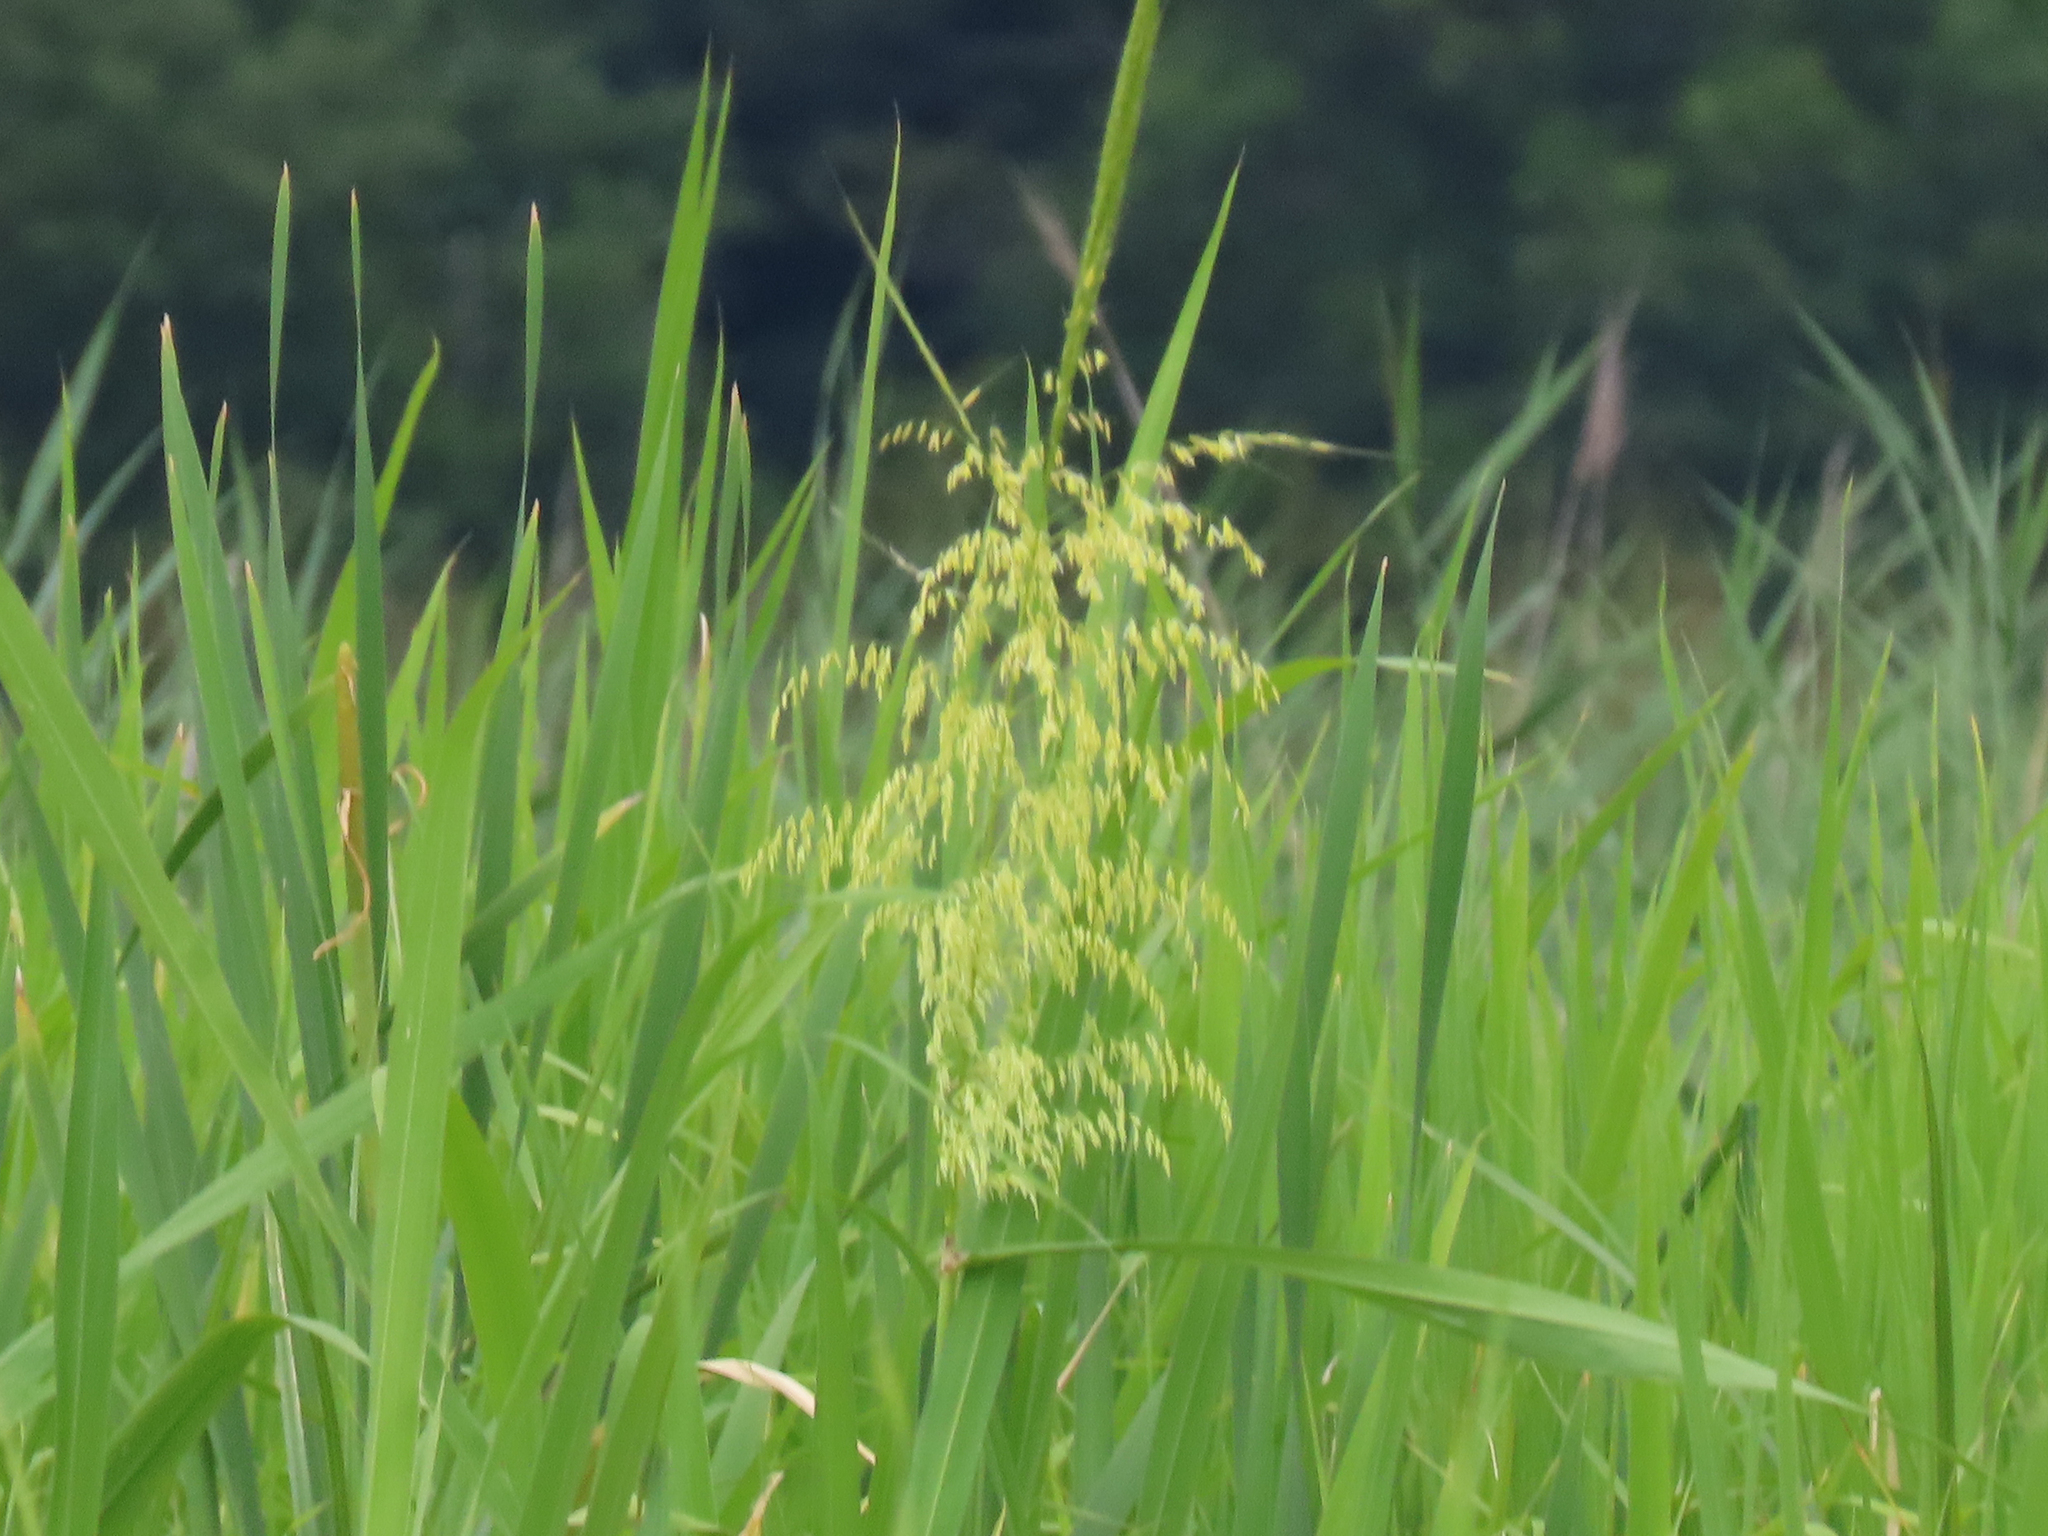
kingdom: Plantae
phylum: Tracheophyta
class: Liliopsida
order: Poales
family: Poaceae
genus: Zizania
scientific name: Zizania aquatica
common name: Annual wildrice
